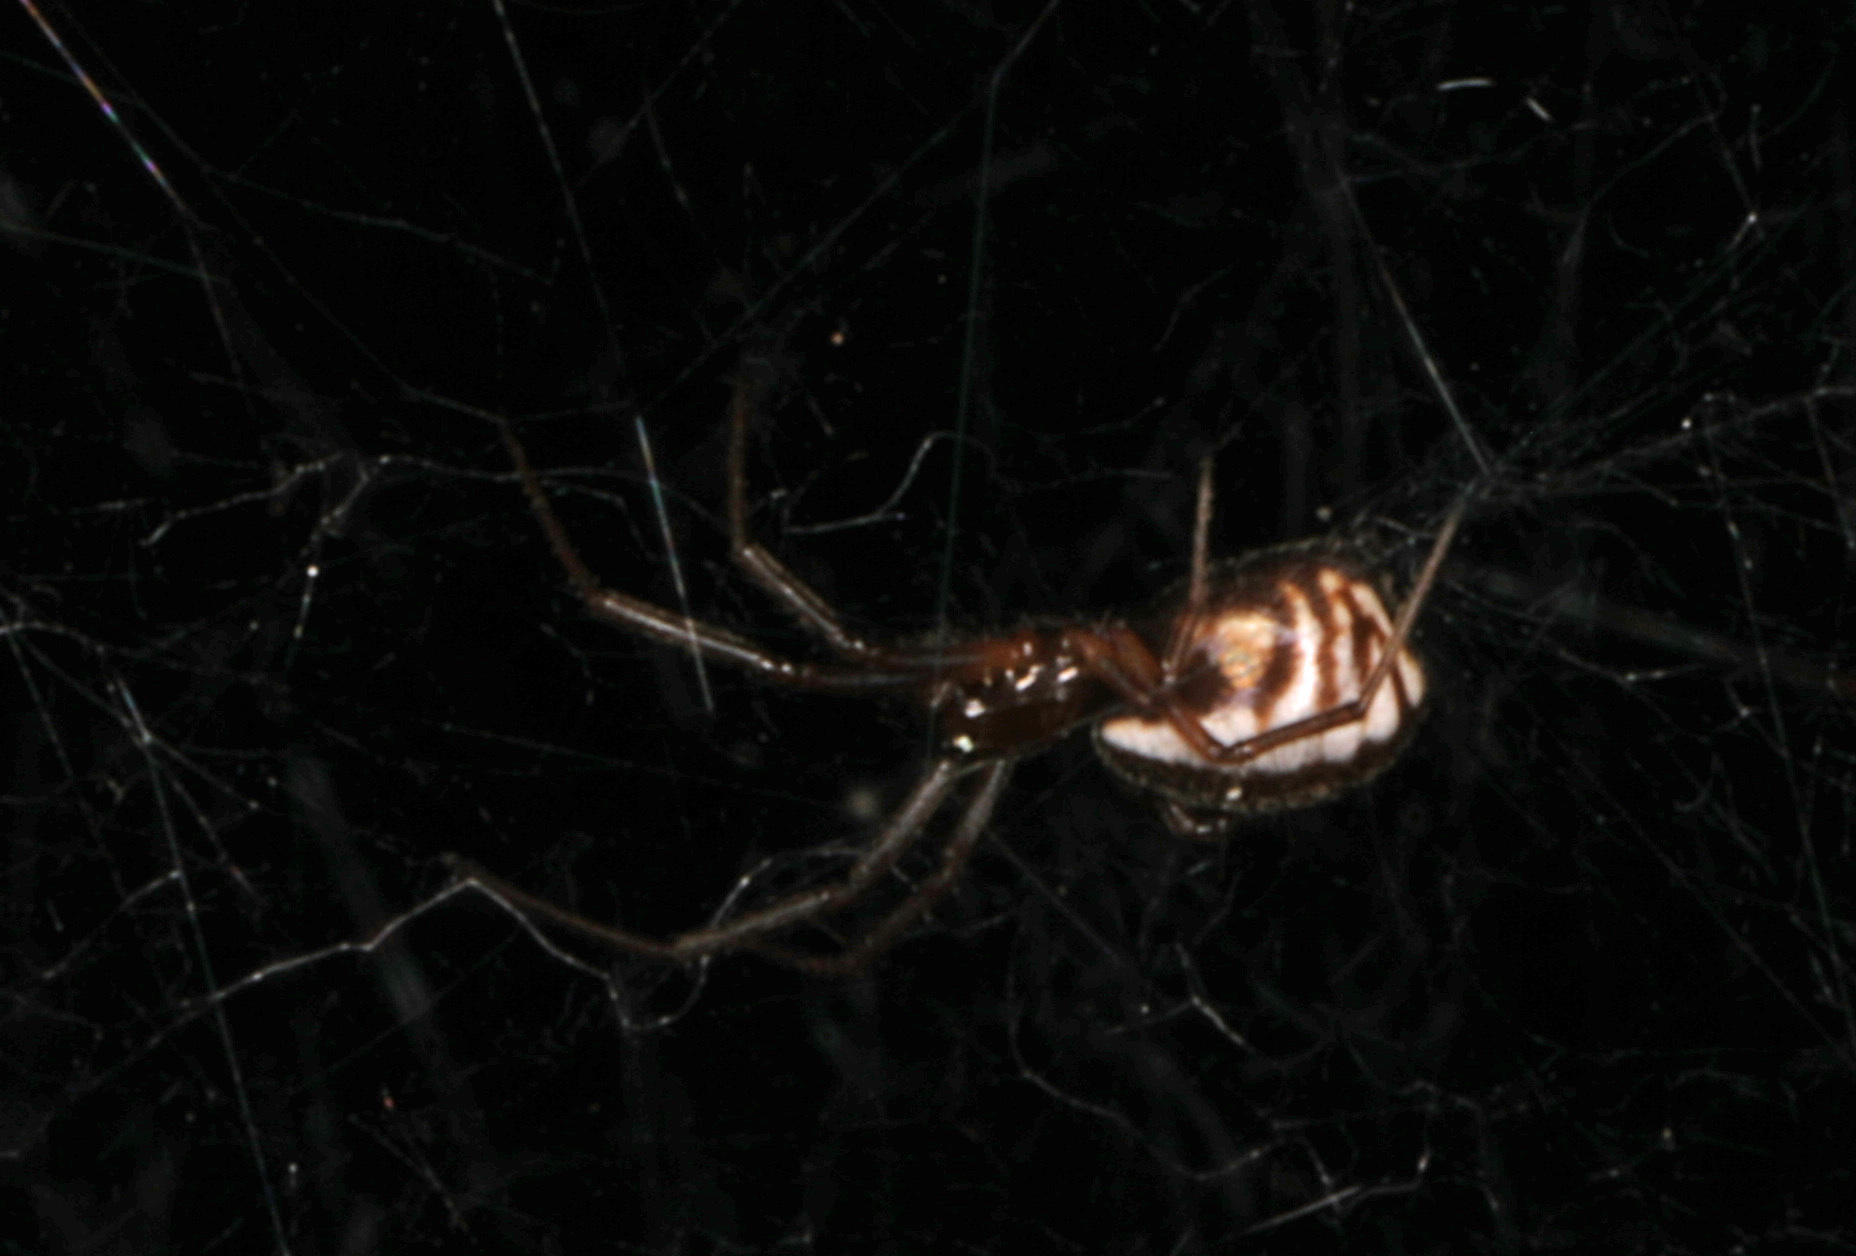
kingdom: Animalia
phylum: Arthropoda
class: Arachnida
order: Araneae
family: Linyphiidae
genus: Frontinella
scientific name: Frontinella pyramitela
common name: Bowl-and-doily spider
